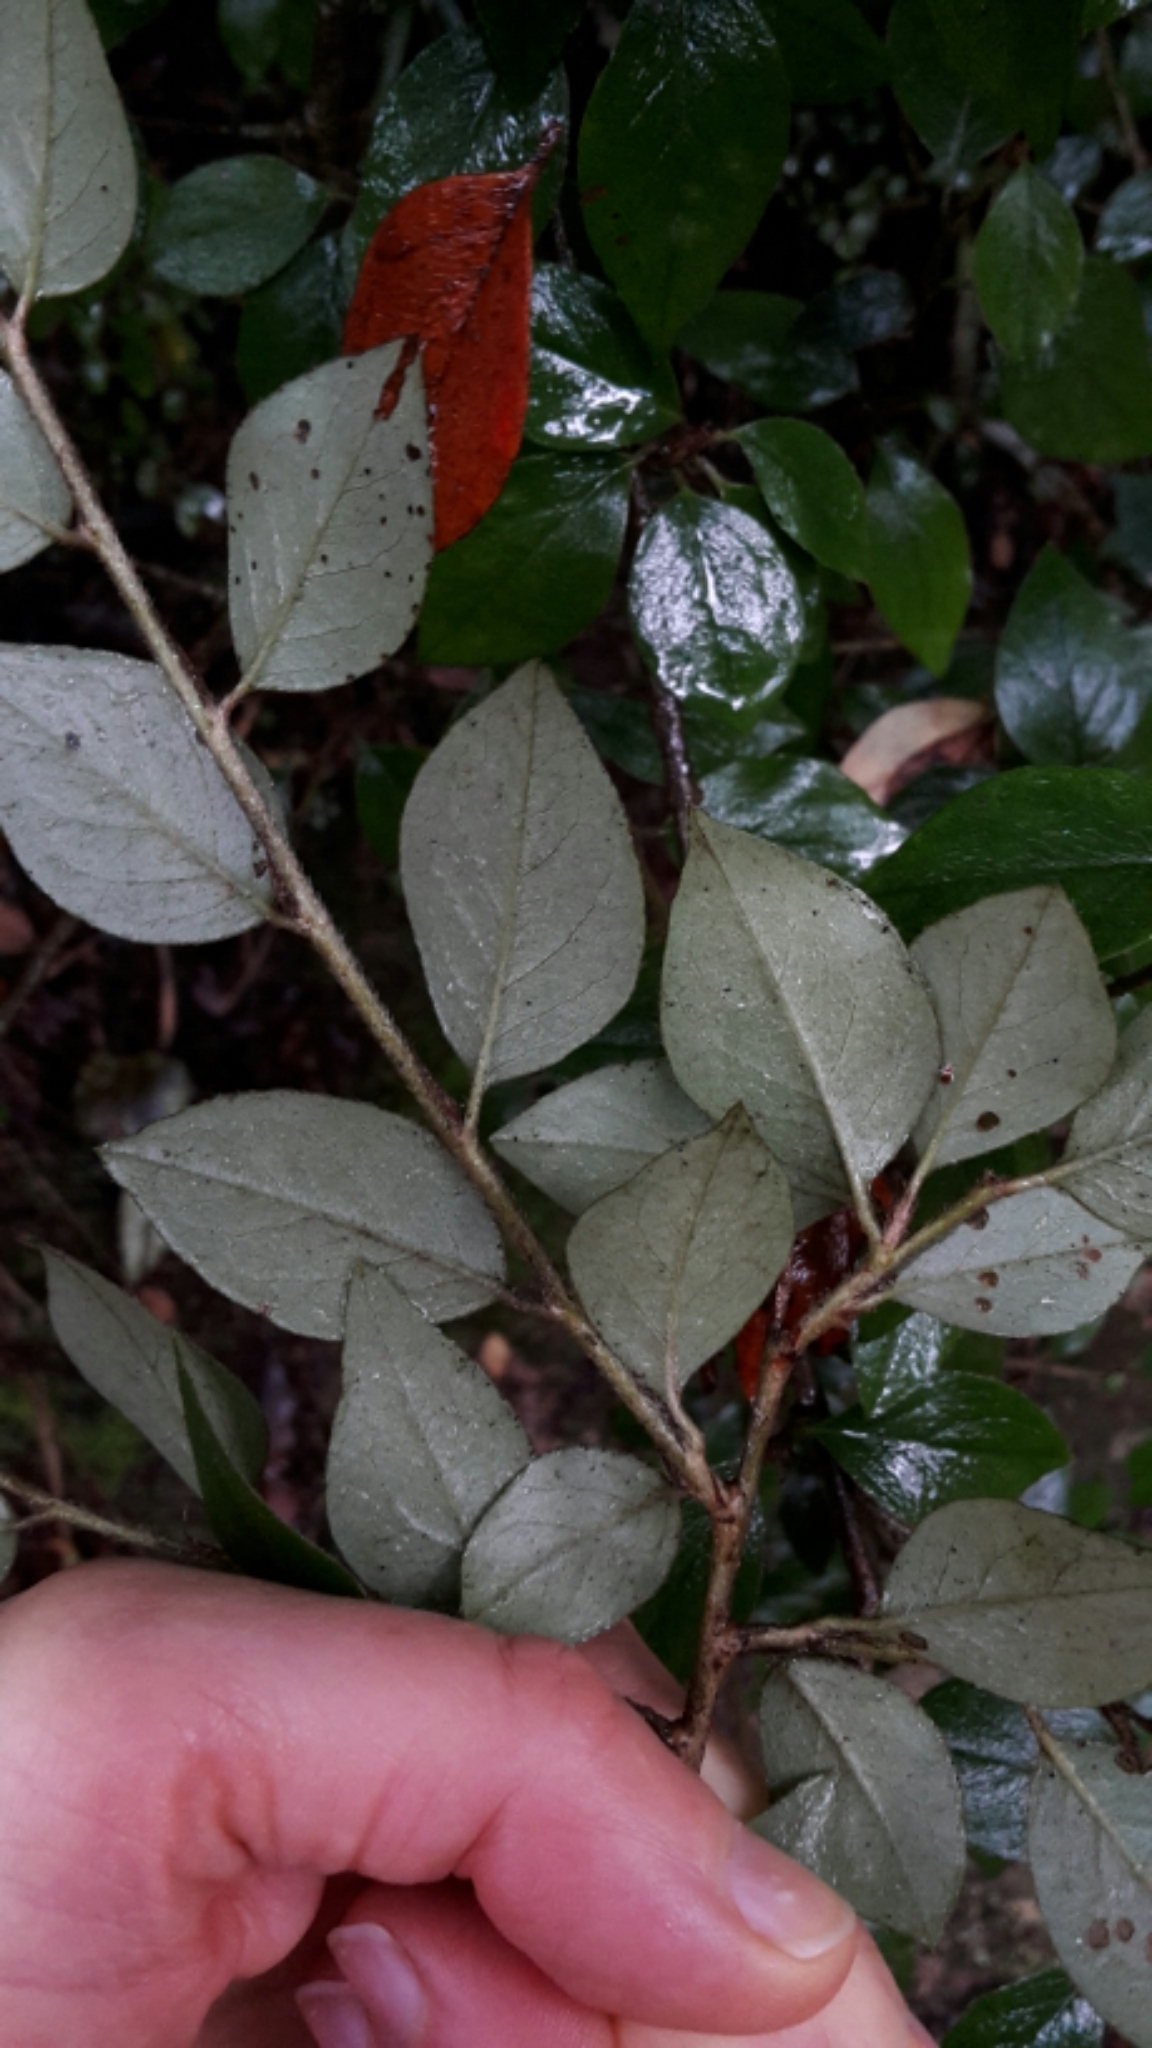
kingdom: Plantae
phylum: Tracheophyta
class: Magnoliopsida
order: Rosales
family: Rosaceae
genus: Cotoneaster
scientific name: Cotoneaster simonsii
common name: Himalayan cotoneaster
